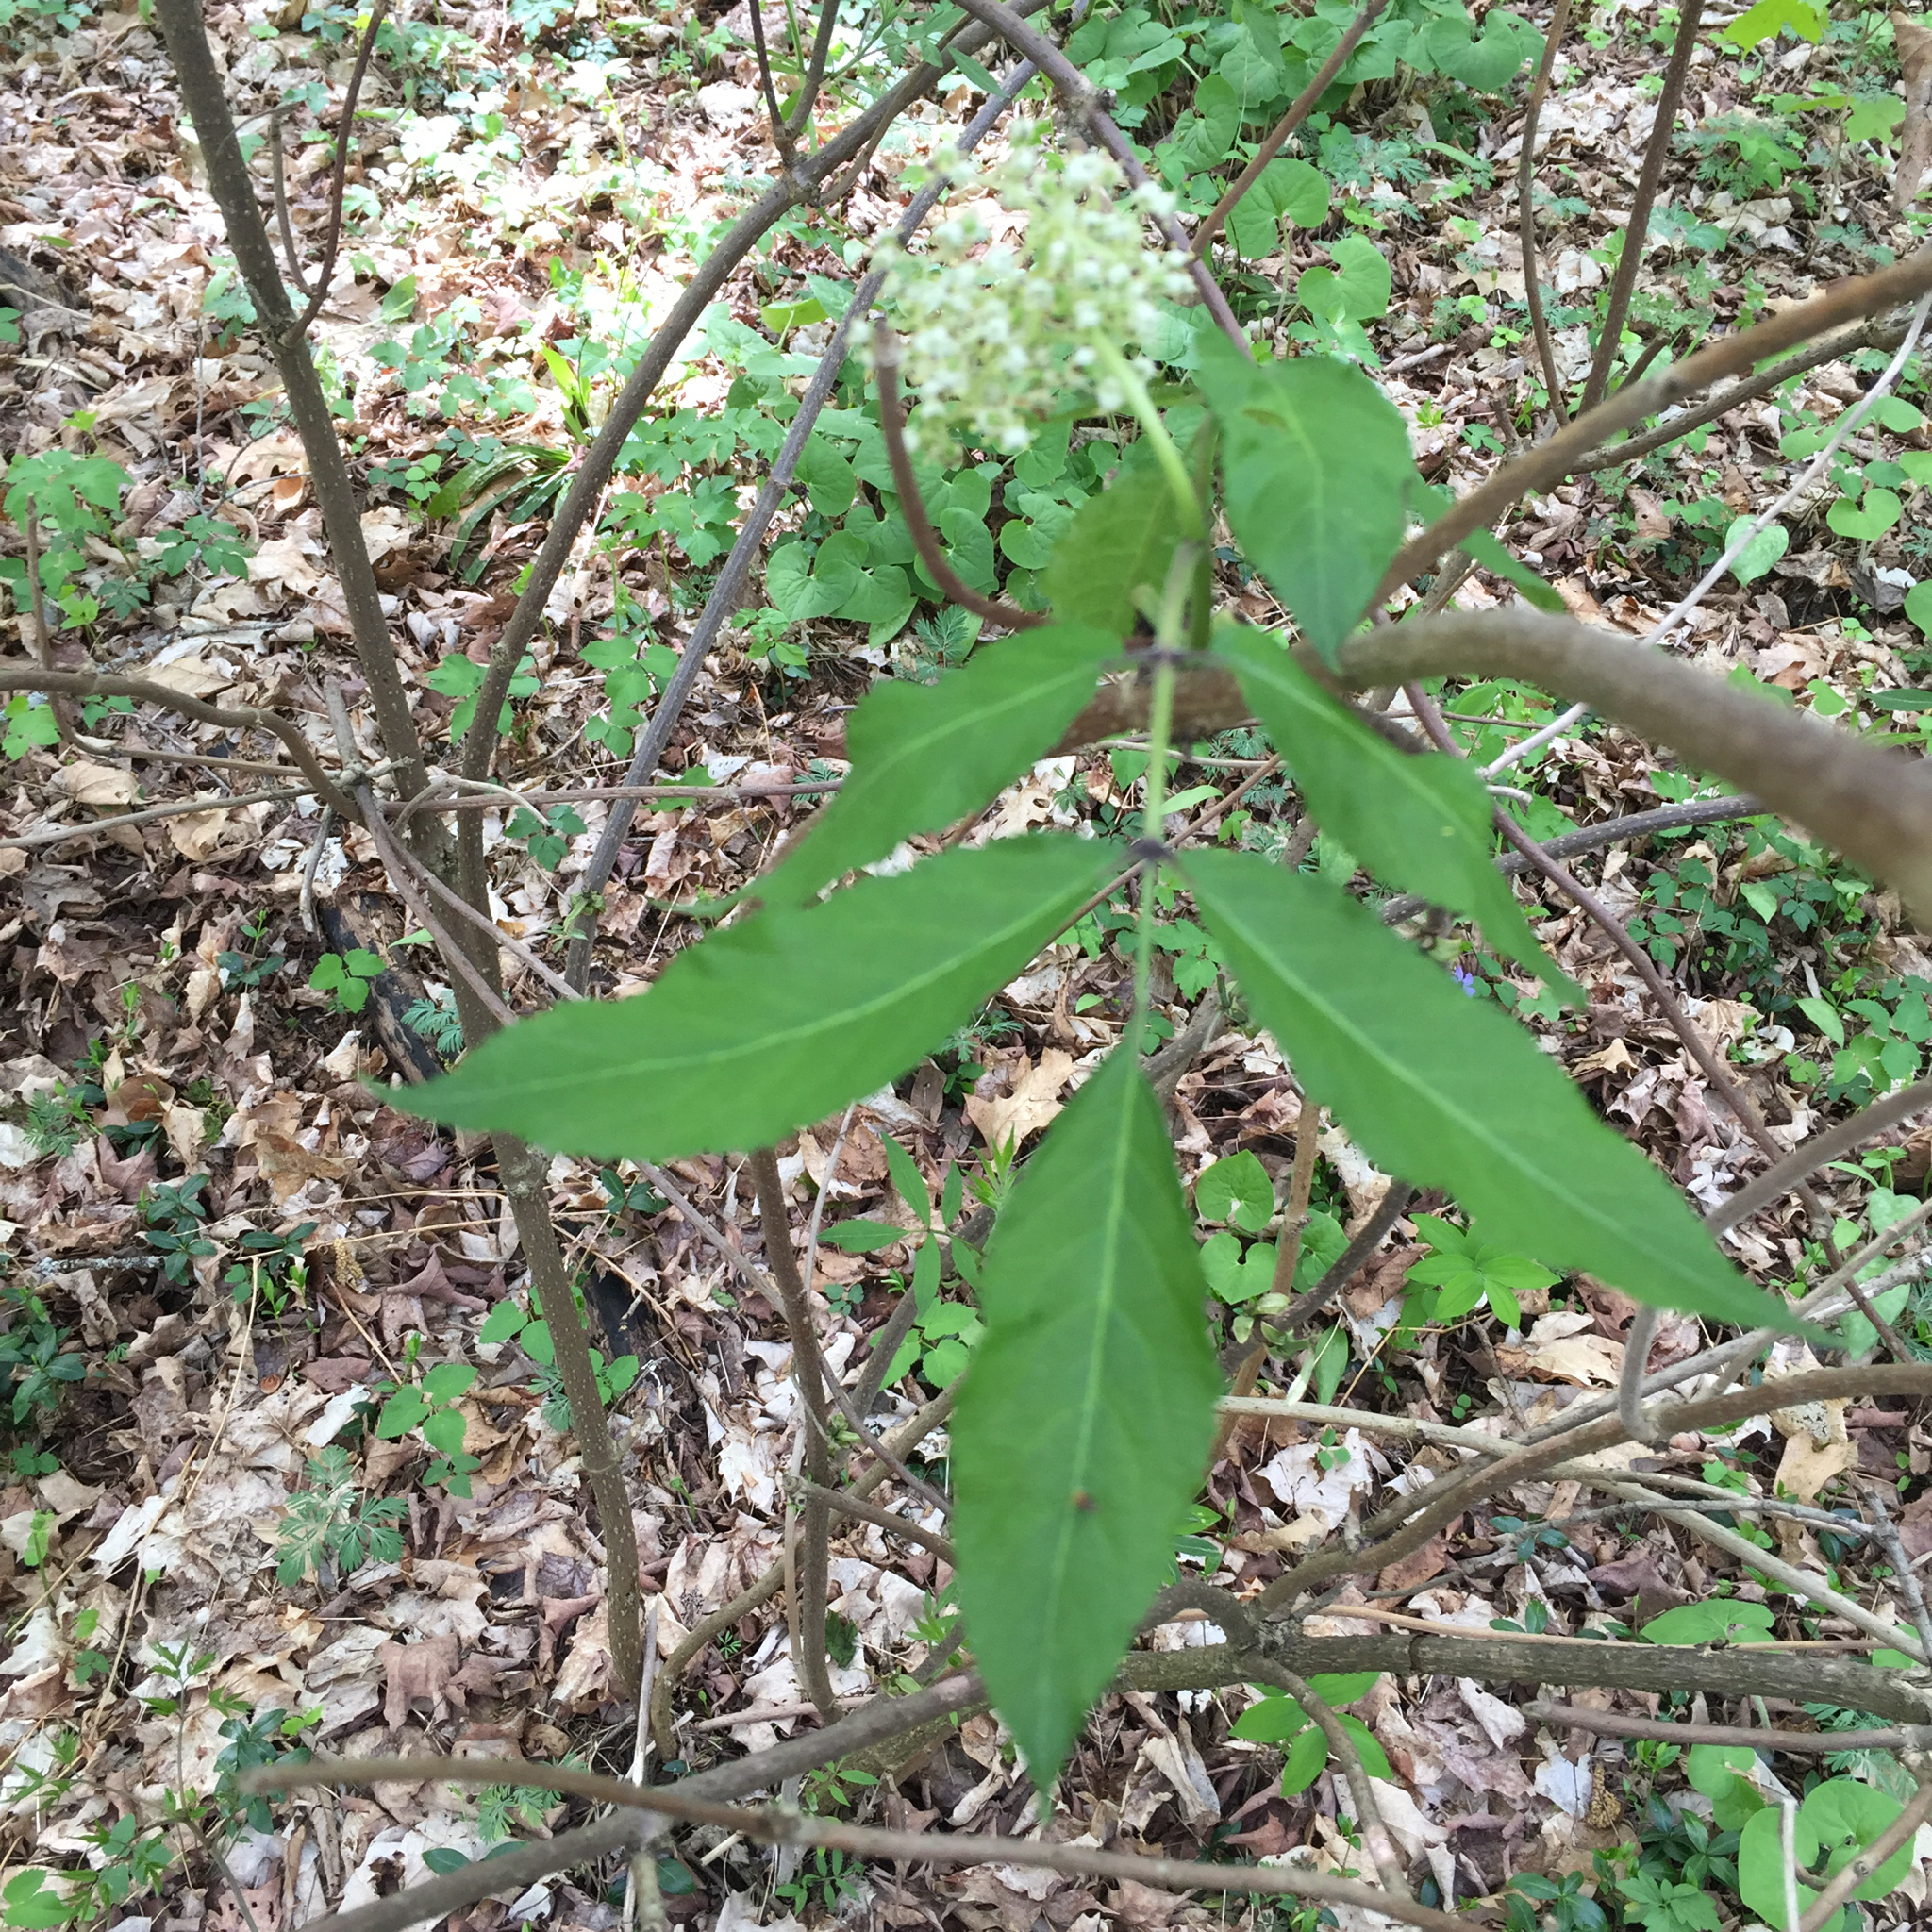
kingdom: Plantae
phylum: Tracheophyta
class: Magnoliopsida
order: Dipsacales
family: Viburnaceae
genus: Sambucus
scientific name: Sambucus racemosa
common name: Red-berried elder
